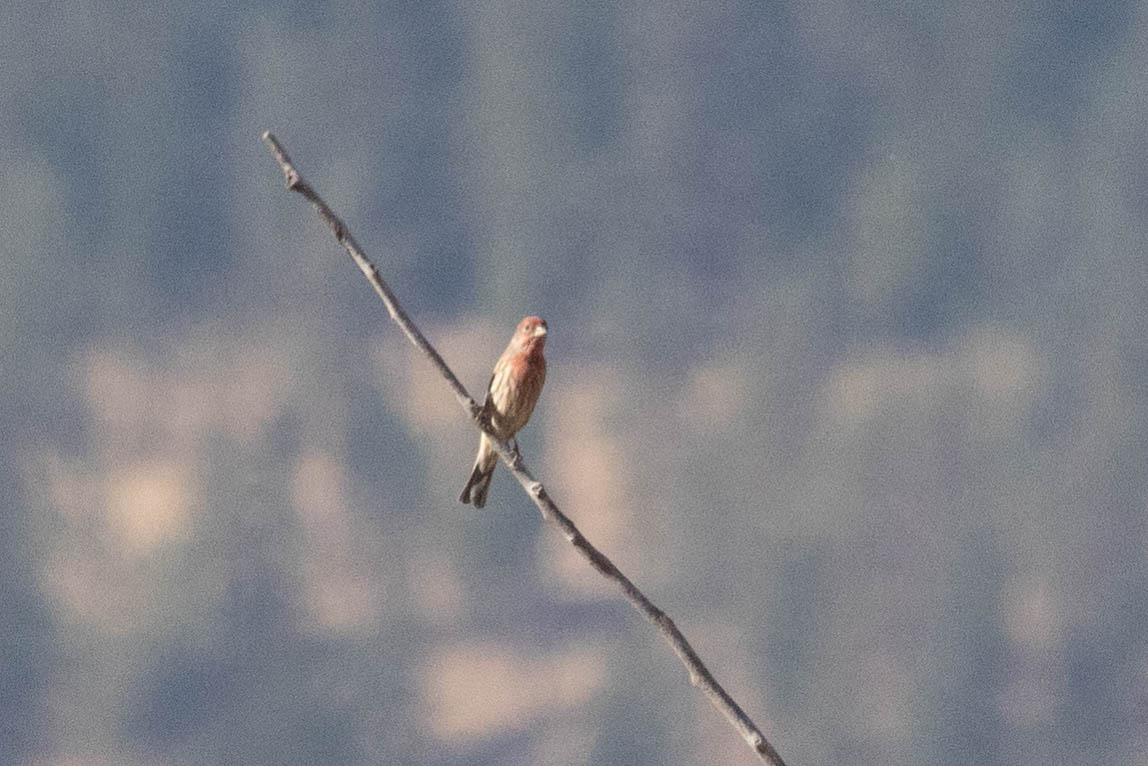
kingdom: Animalia
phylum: Chordata
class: Aves
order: Passeriformes
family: Fringillidae
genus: Haemorhous
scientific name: Haemorhous mexicanus
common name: House finch
